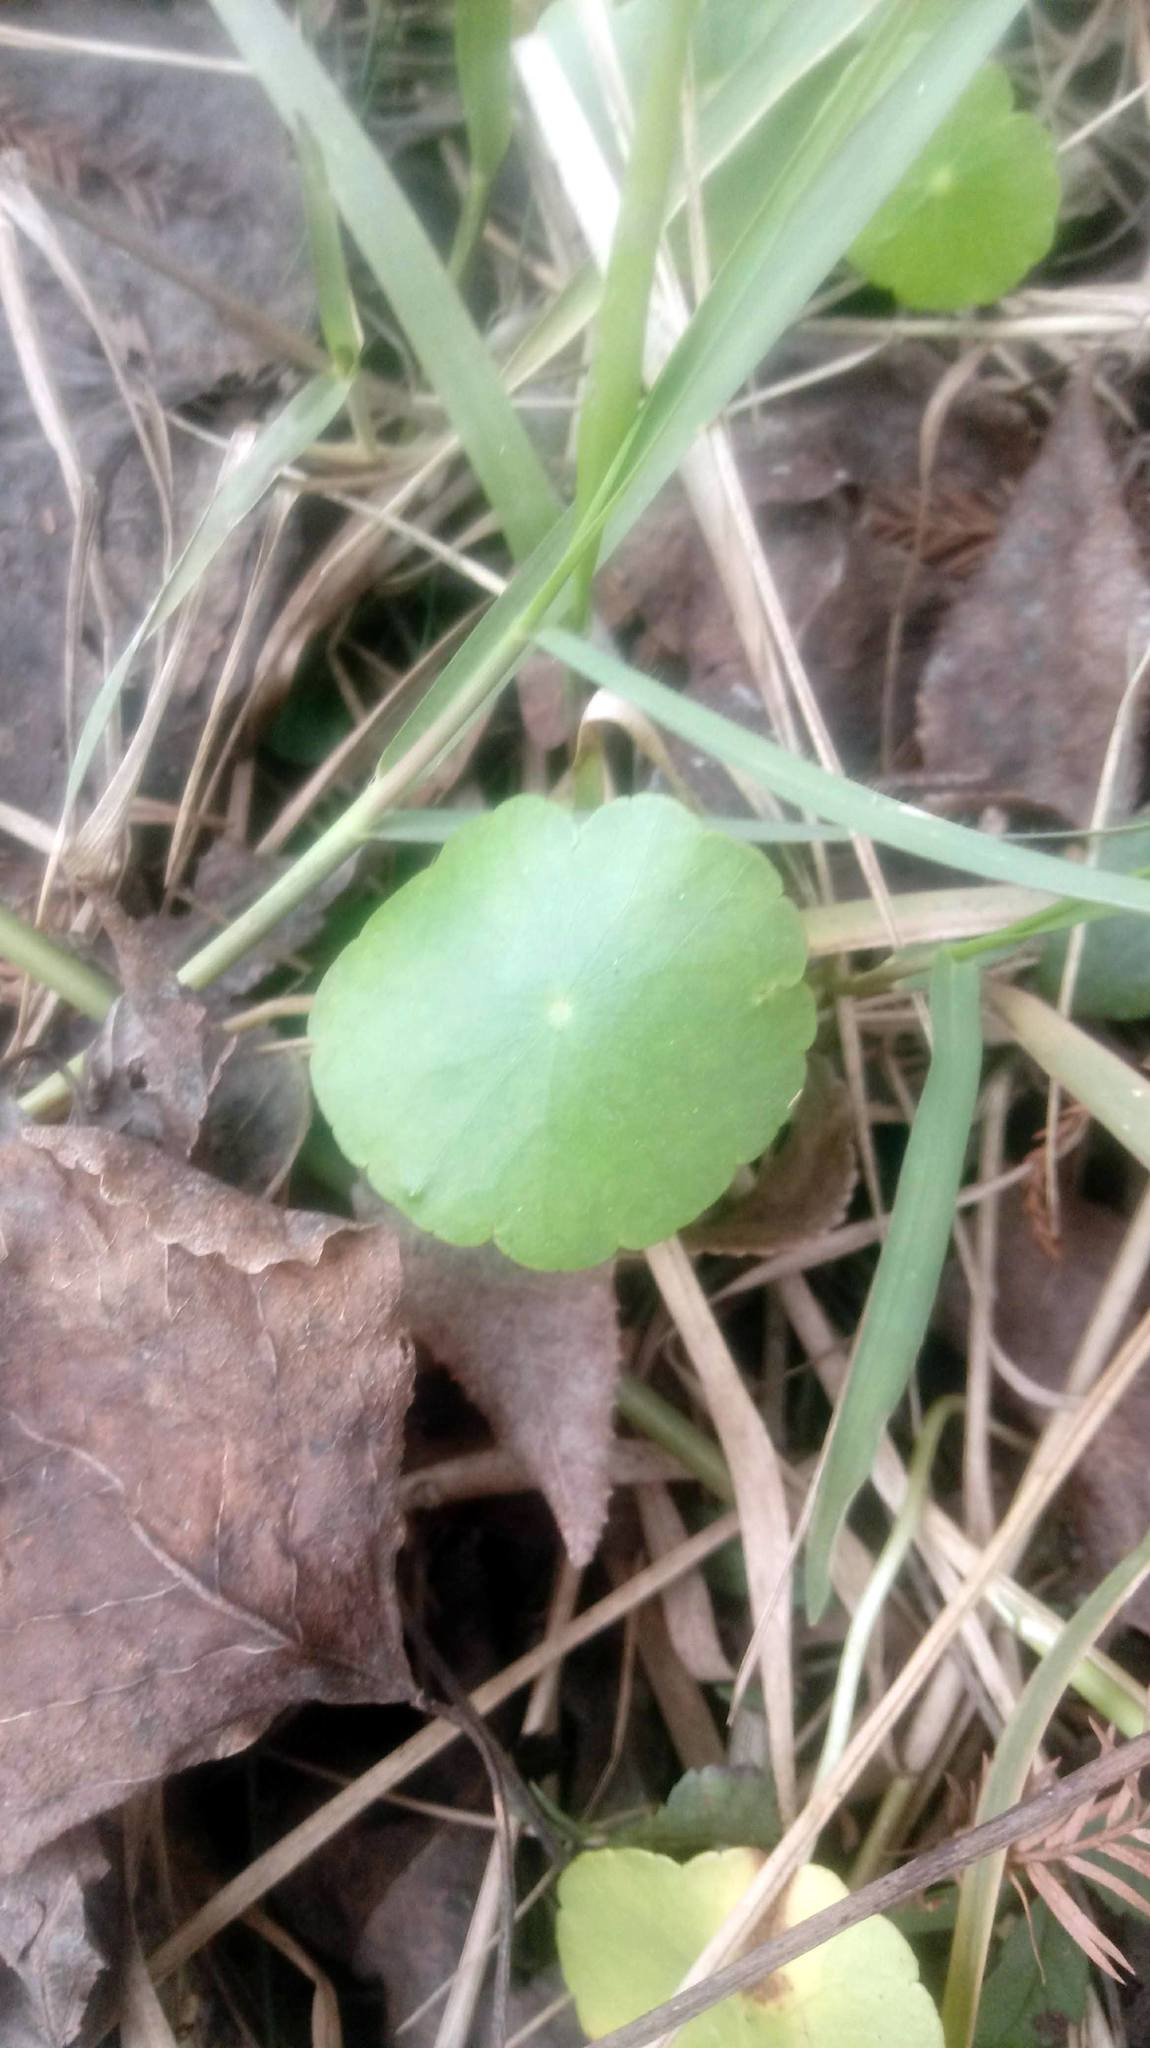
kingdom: Plantae
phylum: Tracheophyta
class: Magnoliopsida
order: Apiales
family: Araliaceae
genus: Hydrocotyle
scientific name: Hydrocotyle bonariensis
